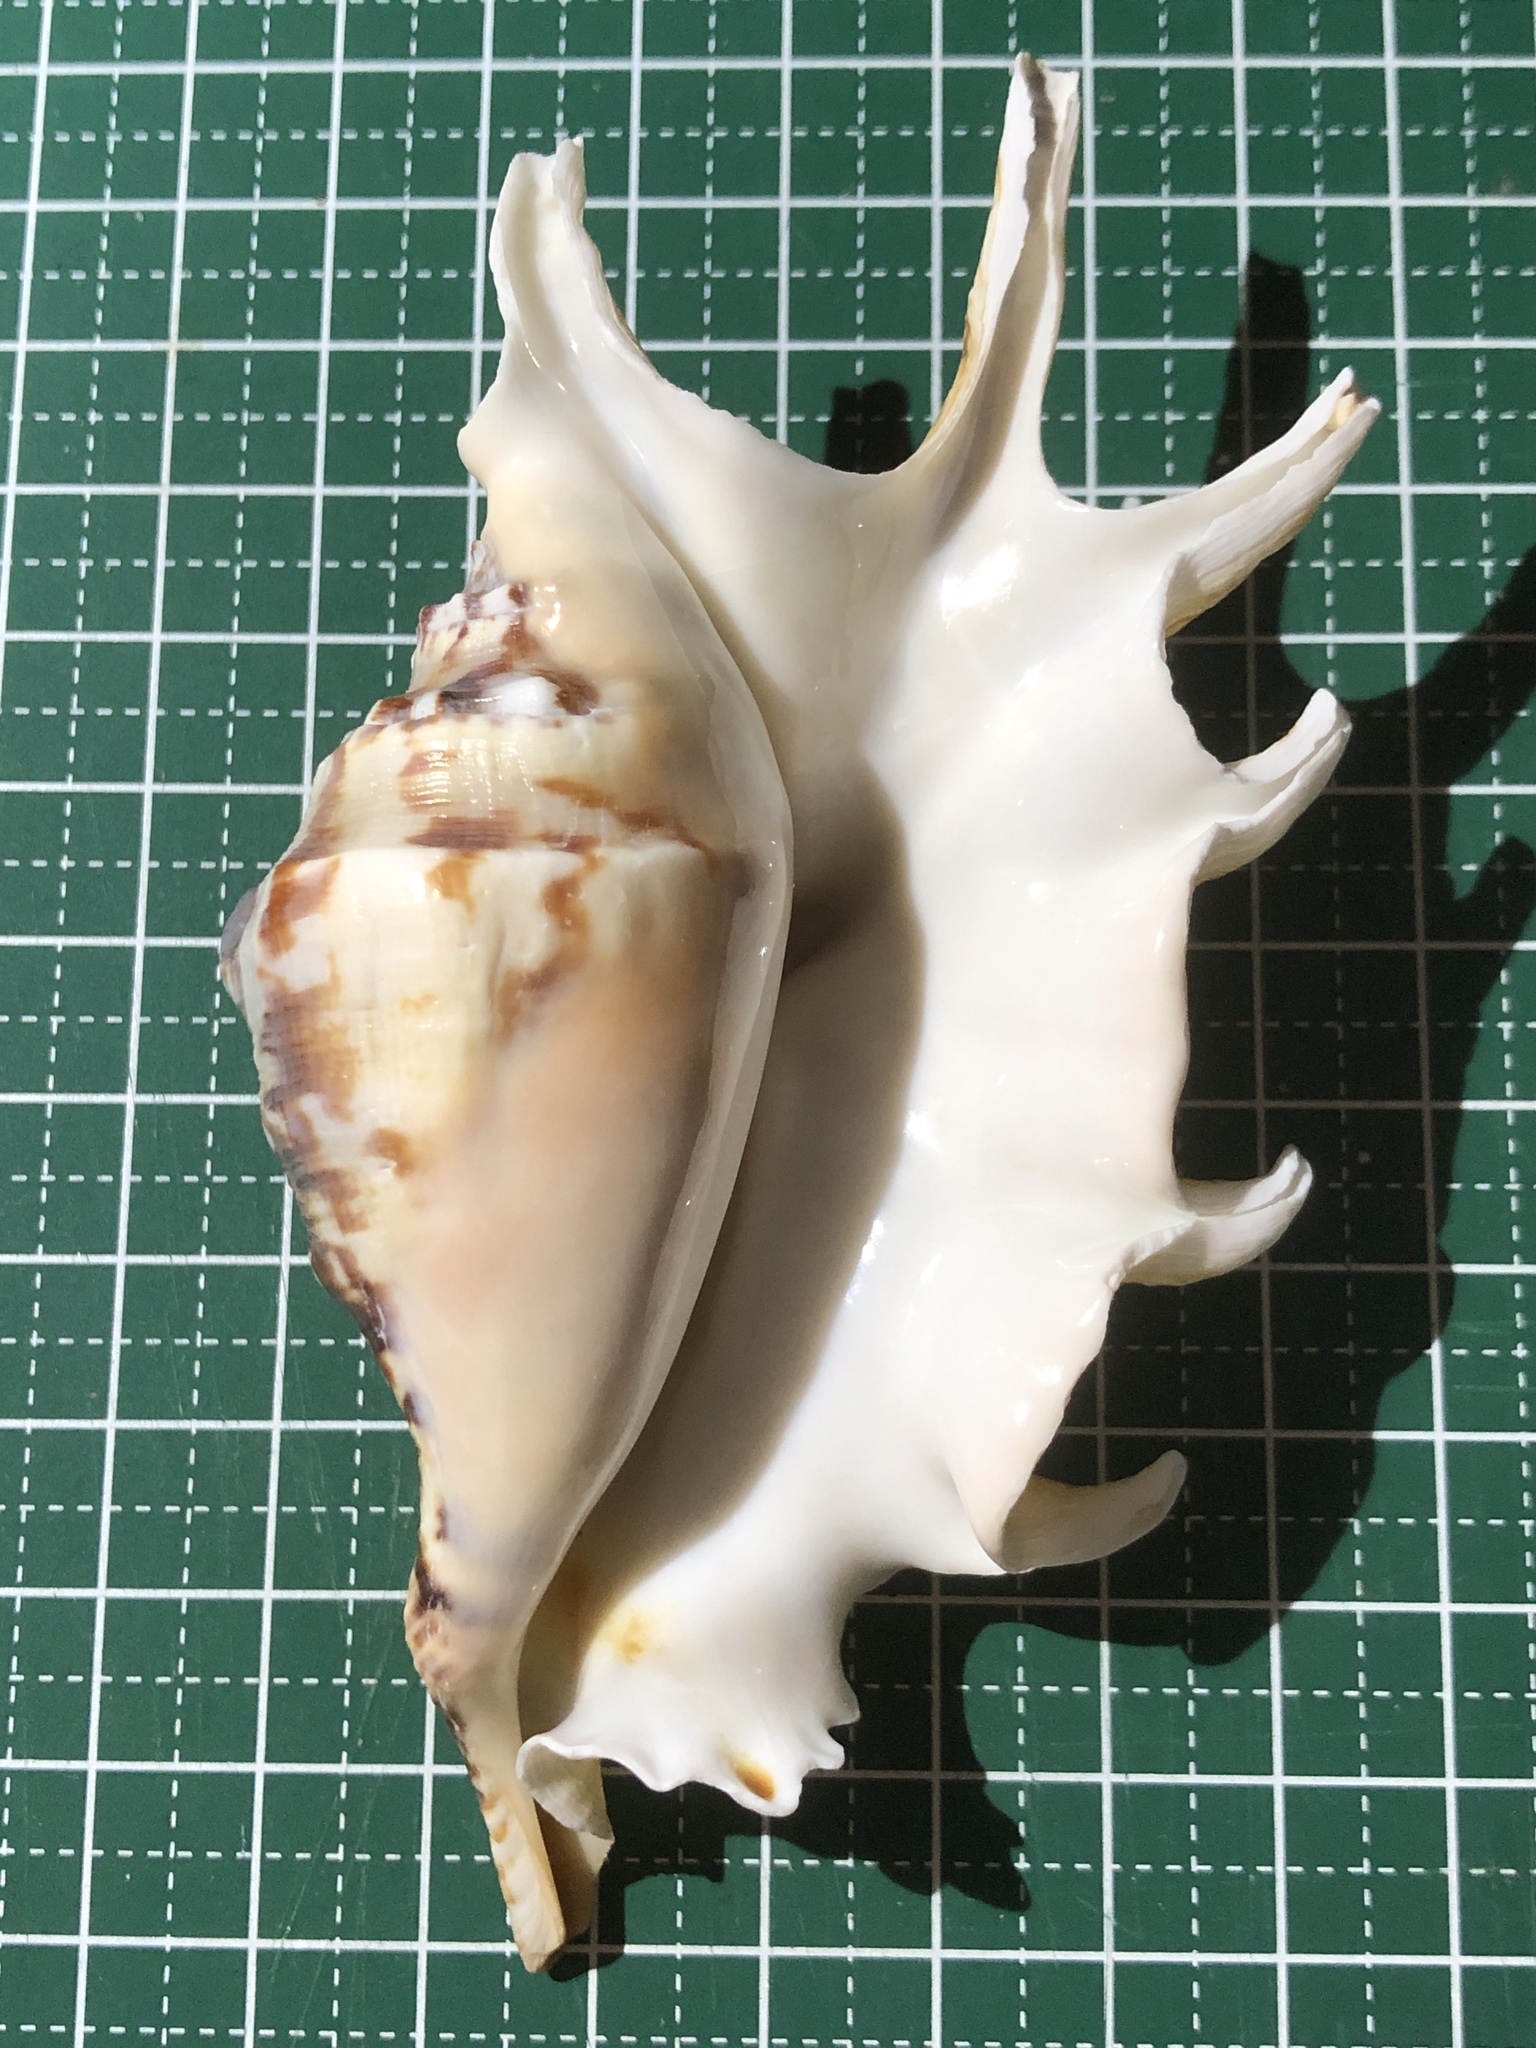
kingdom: Animalia
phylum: Mollusca
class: Gastropoda
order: Littorinimorpha
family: Strombidae
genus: Lambis
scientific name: Lambis lambis
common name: Common spider conch
